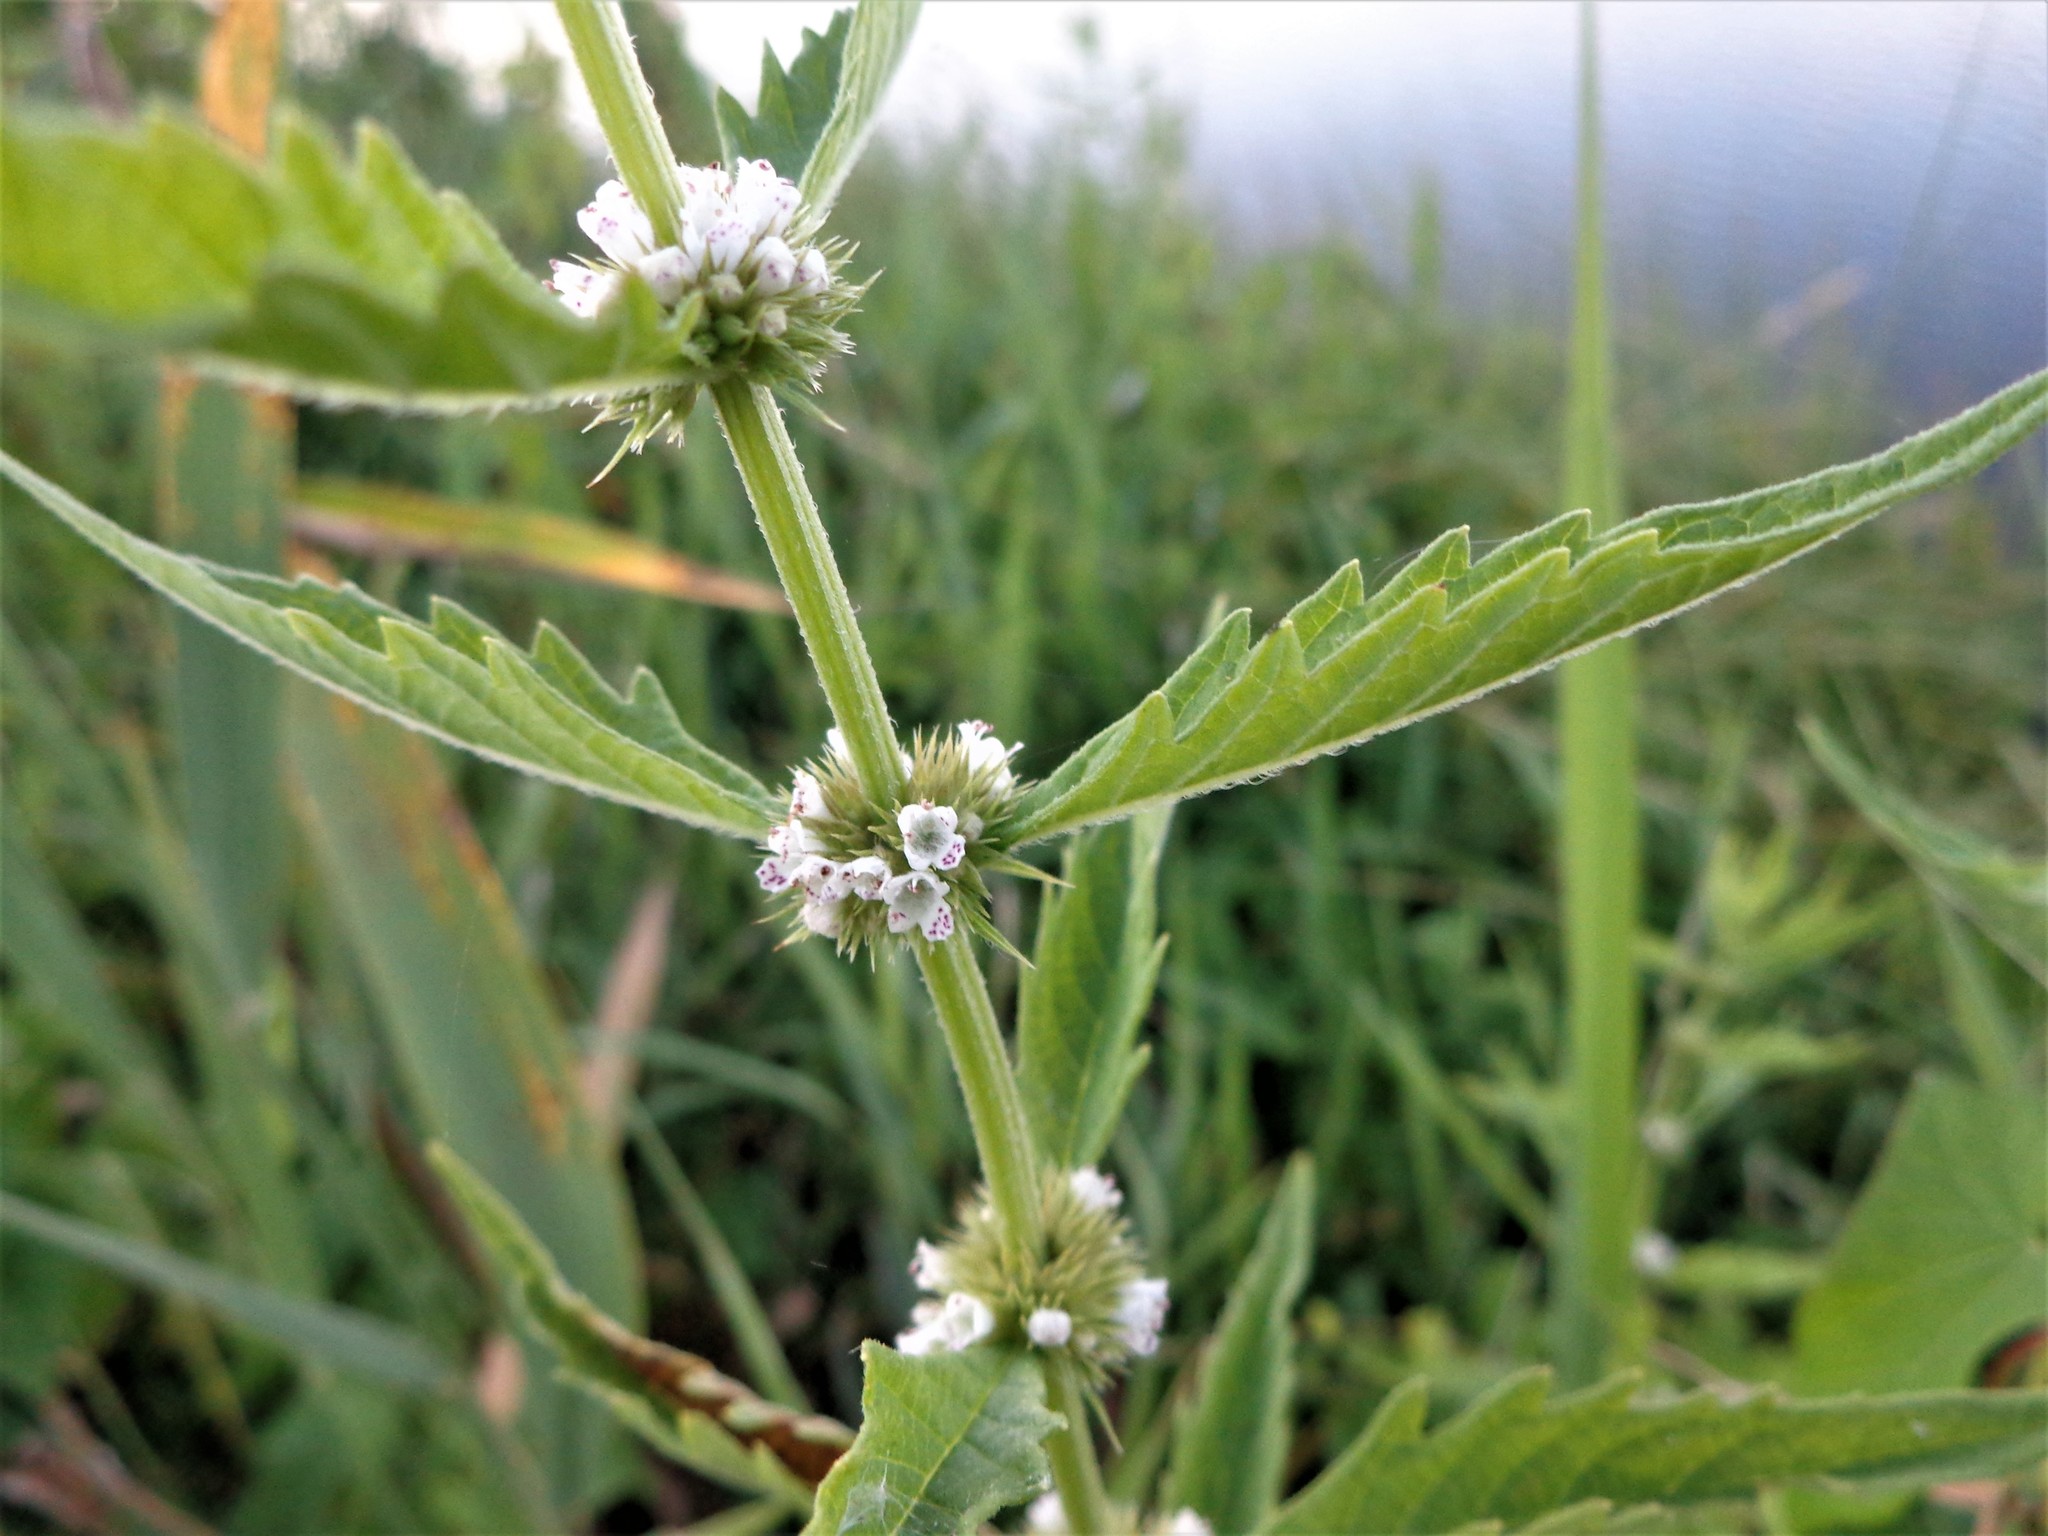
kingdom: Plantae
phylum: Tracheophyta
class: Magnoliopsida
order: Lamiales
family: Lamiaceae
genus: Lycopus
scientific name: Lycopus europaeus
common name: European bugleweed
